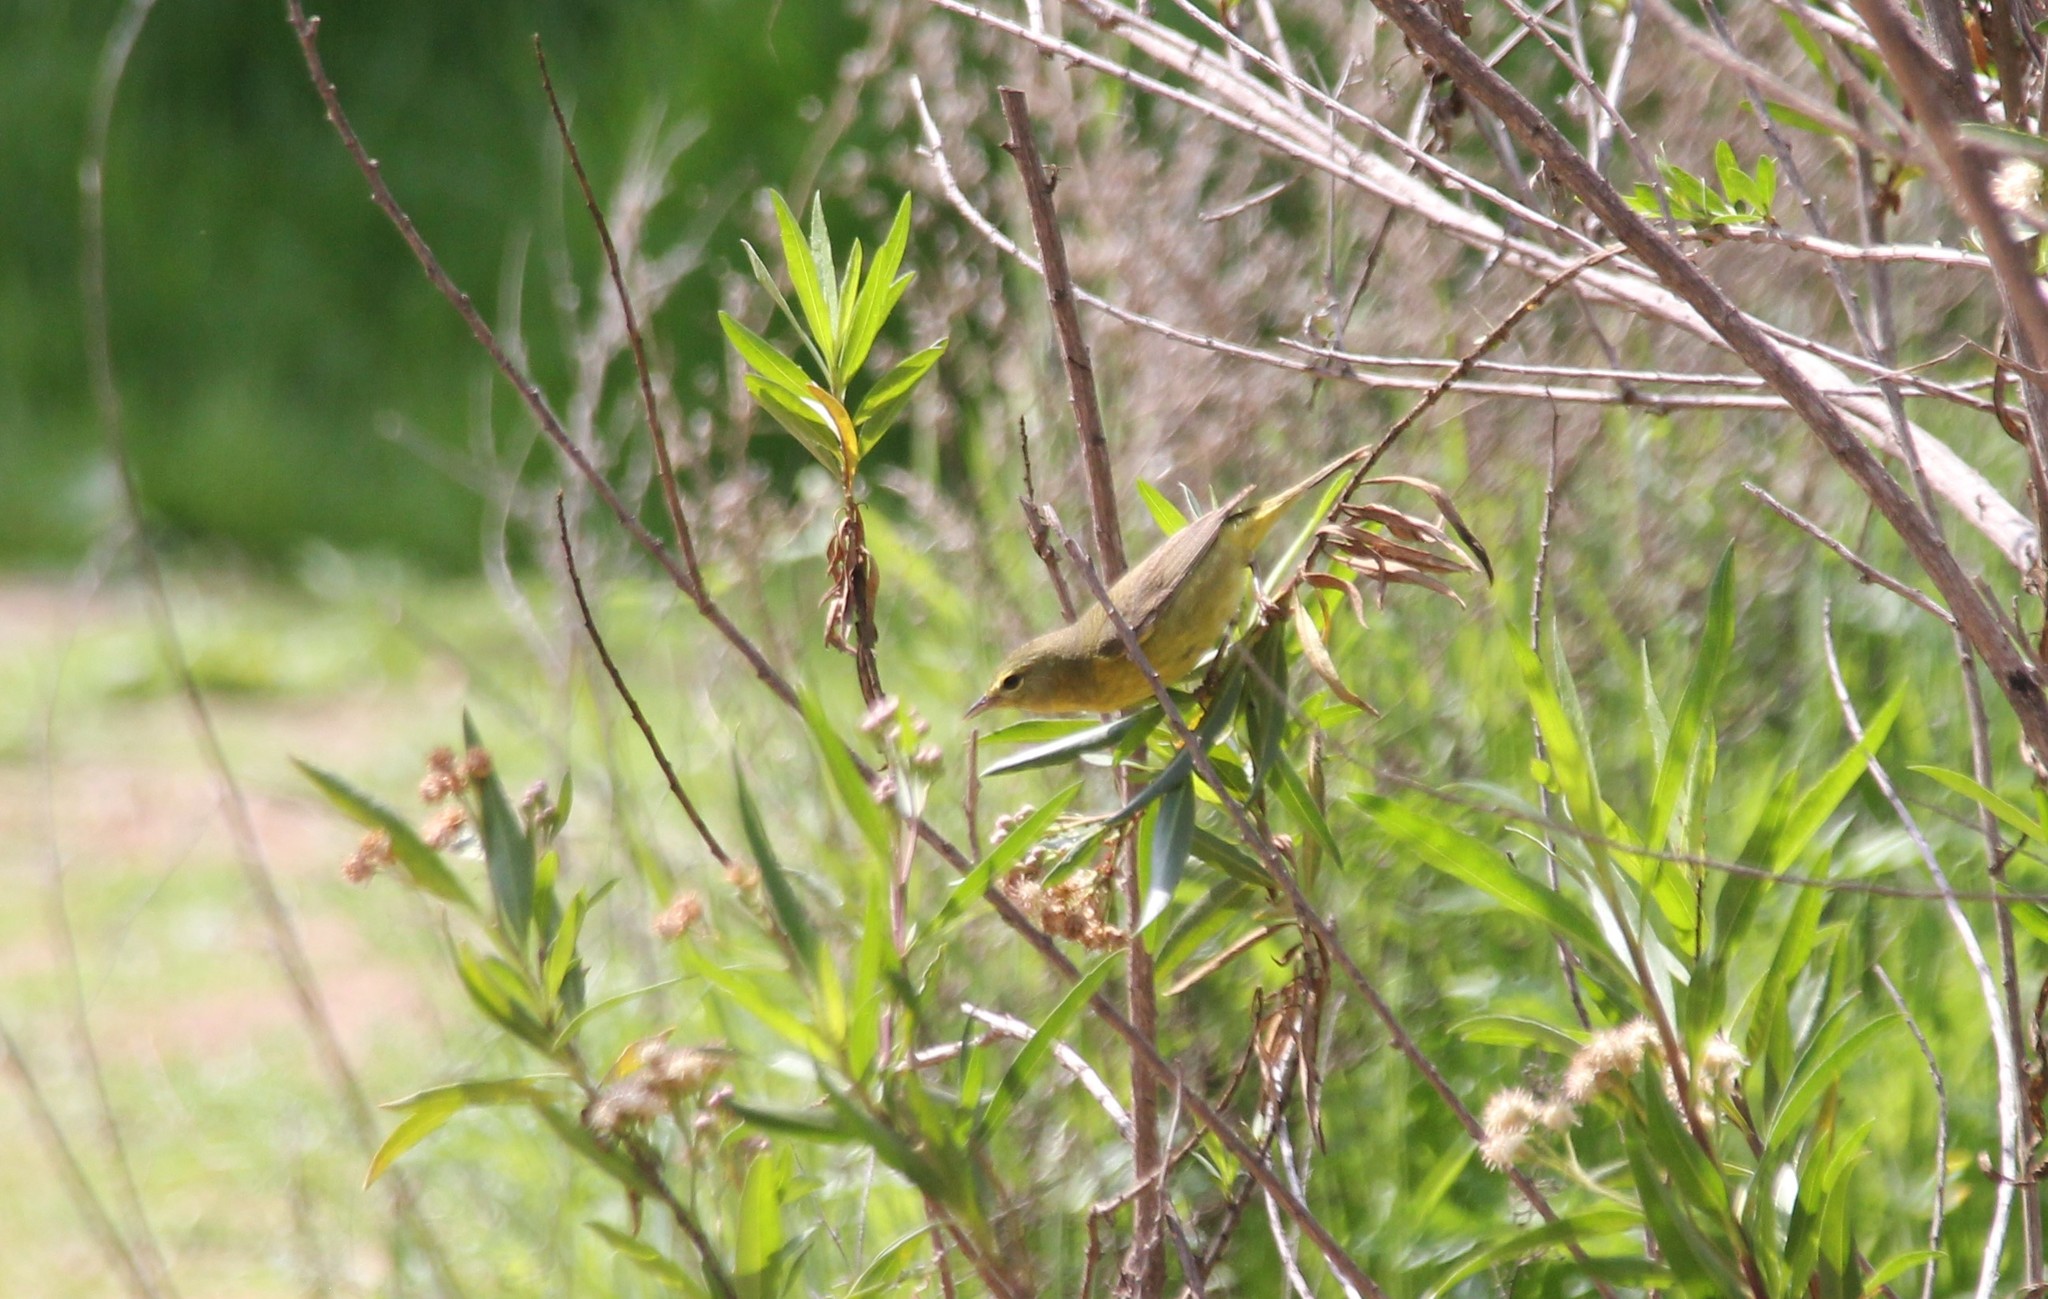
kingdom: Animalia
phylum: Chordata
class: Aves
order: Passeriformes
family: Parulidae
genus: Leiothlypis
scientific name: Leiothlypis celata
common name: Orange-crowned warbler
